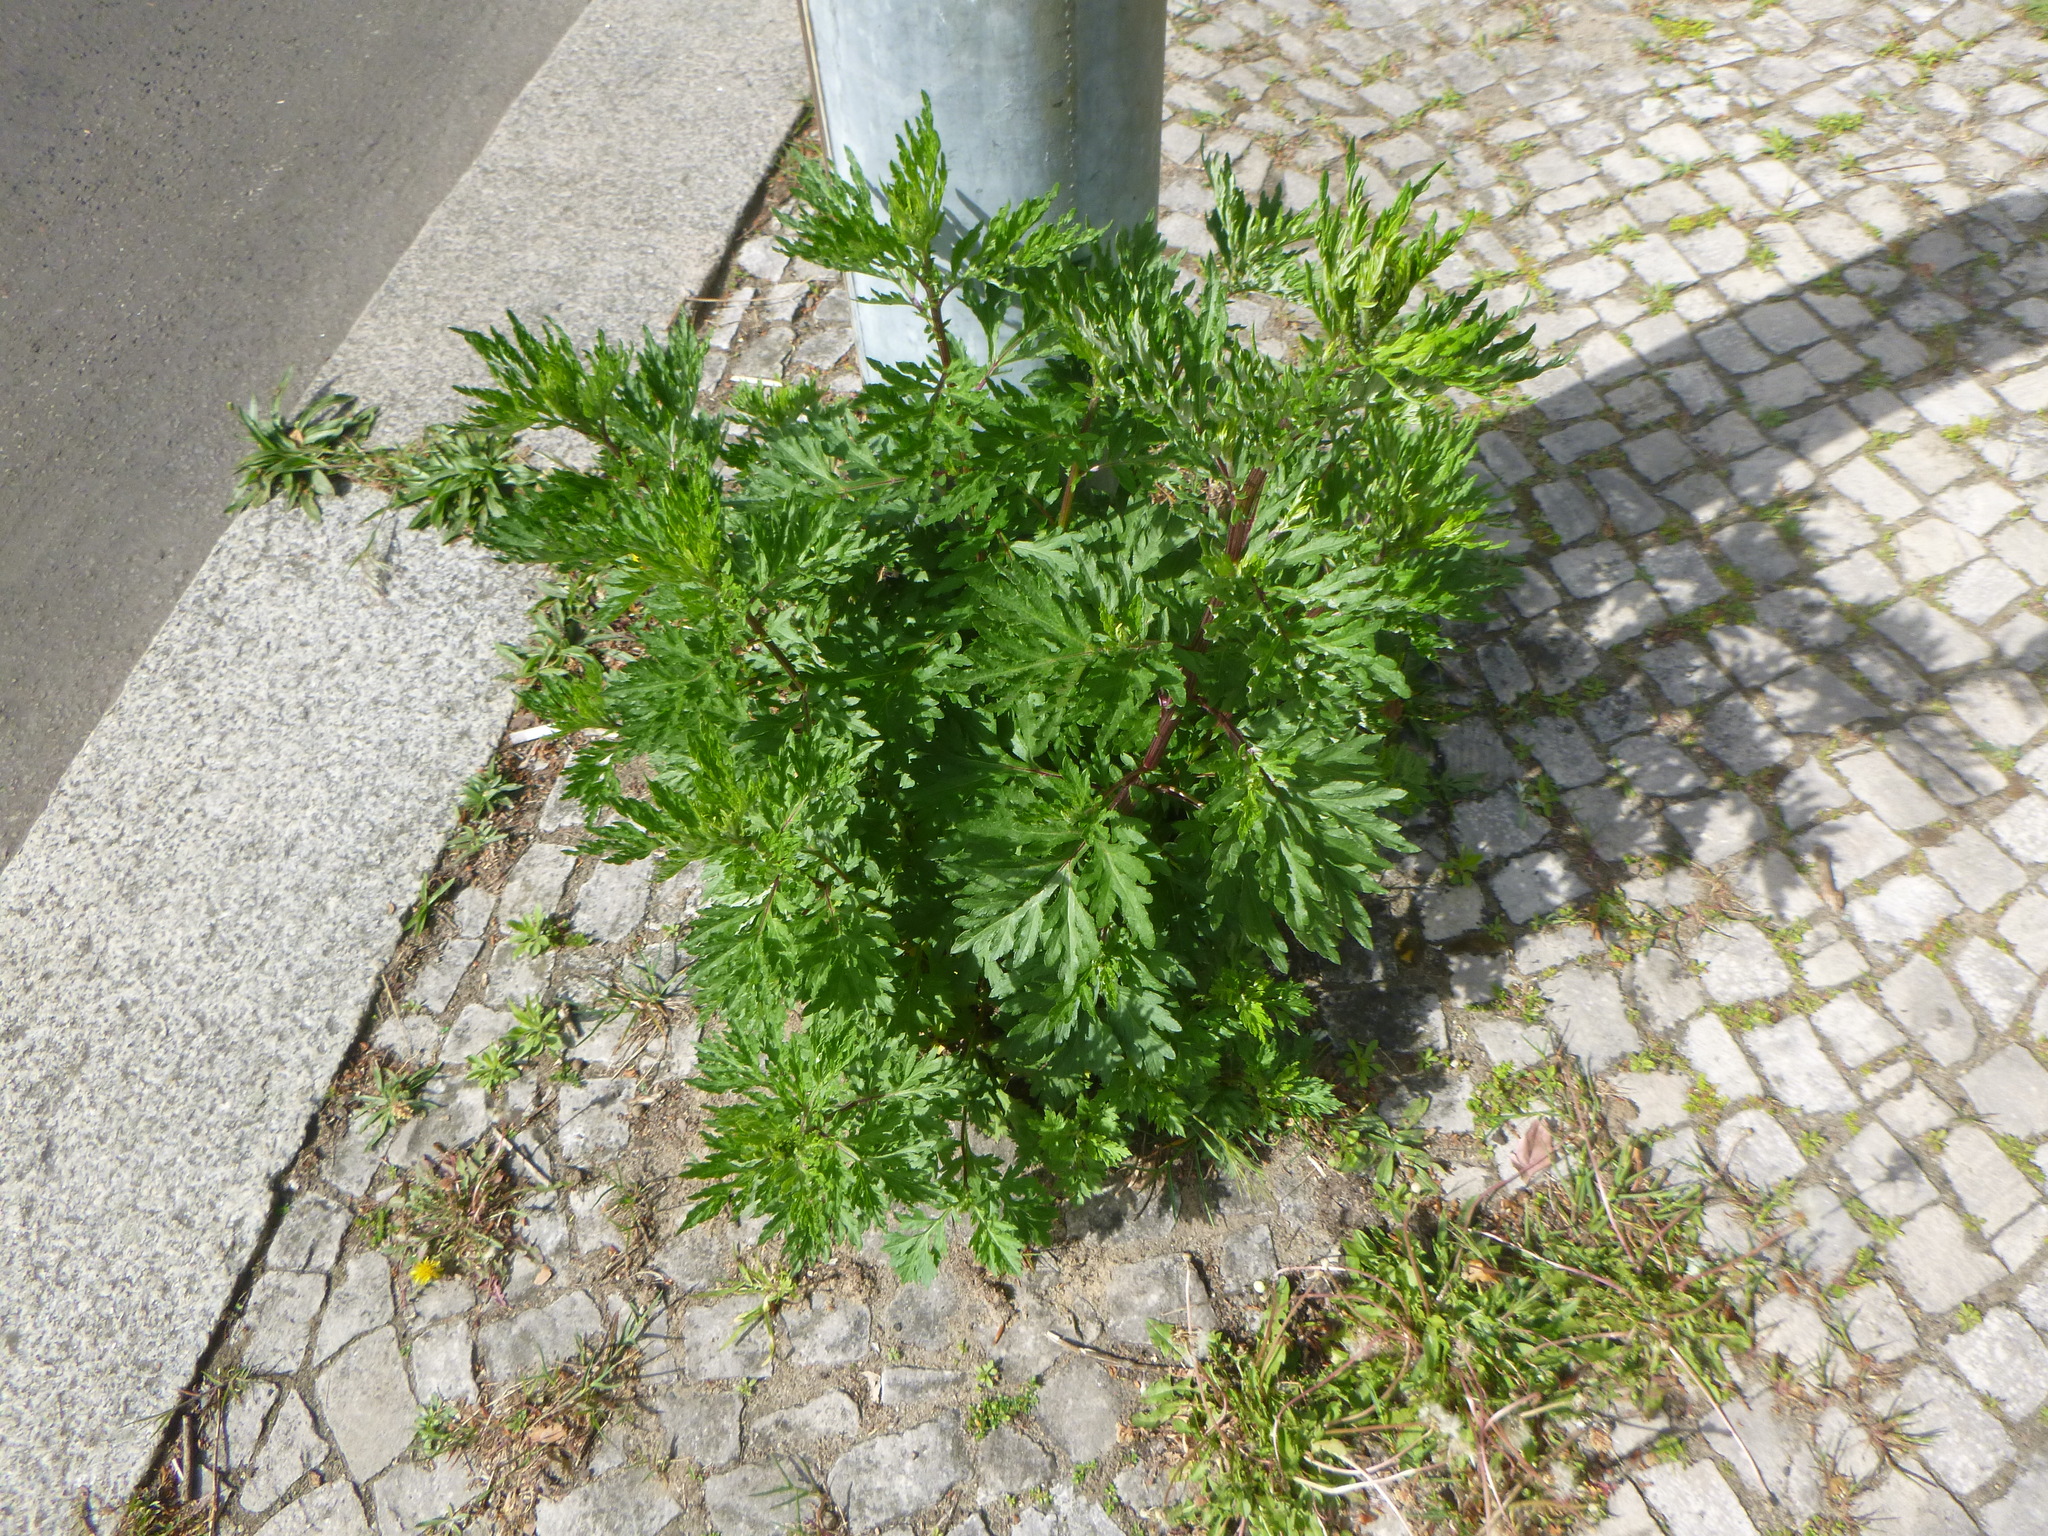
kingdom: Plantae
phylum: Tracheophyta
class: Magnoliopsida
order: Asterales
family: Asteraceae
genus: Artemisia
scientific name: Artemisia vulgaris
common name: Mugwort
